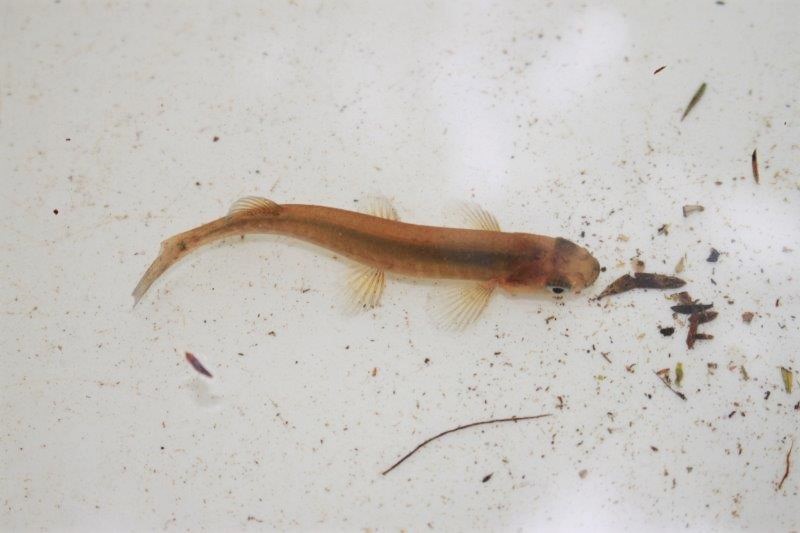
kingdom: Animalia
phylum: Chordata
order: Osmeriformes
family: Galaxiidae
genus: Galaxias
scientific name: Galaxias fasciatus
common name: Banded kokopu
